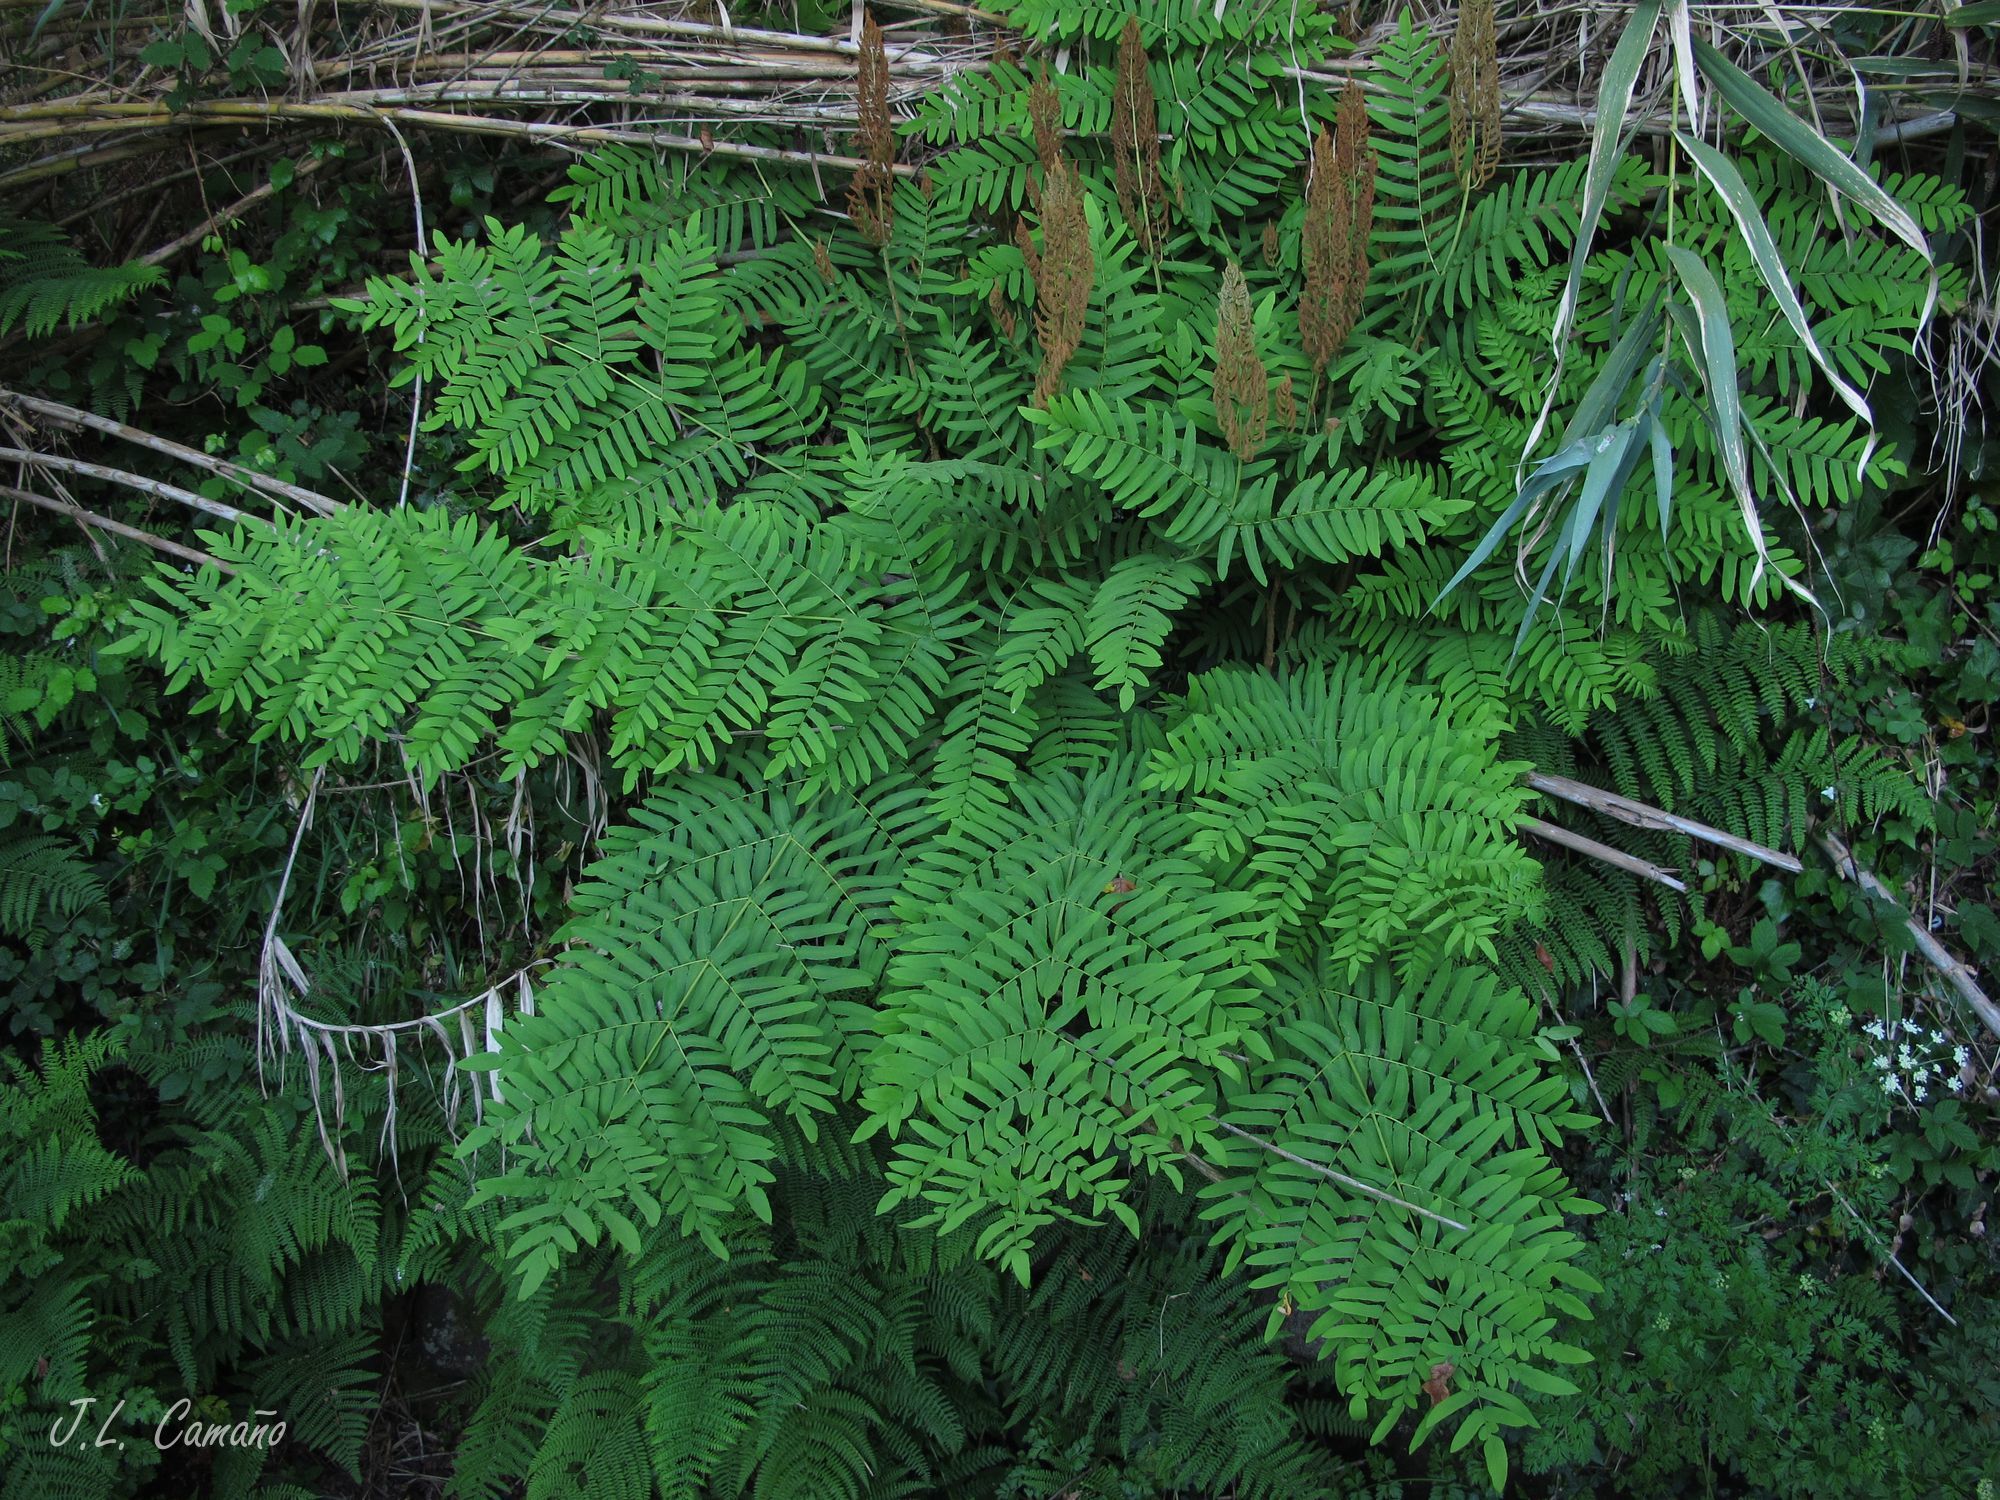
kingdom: Plantae
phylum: Tracheophyta
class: Polypodiopsida
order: Osmundales
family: Osmundaceae
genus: Osmunda
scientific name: Osmunda regalis
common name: Royal fern
